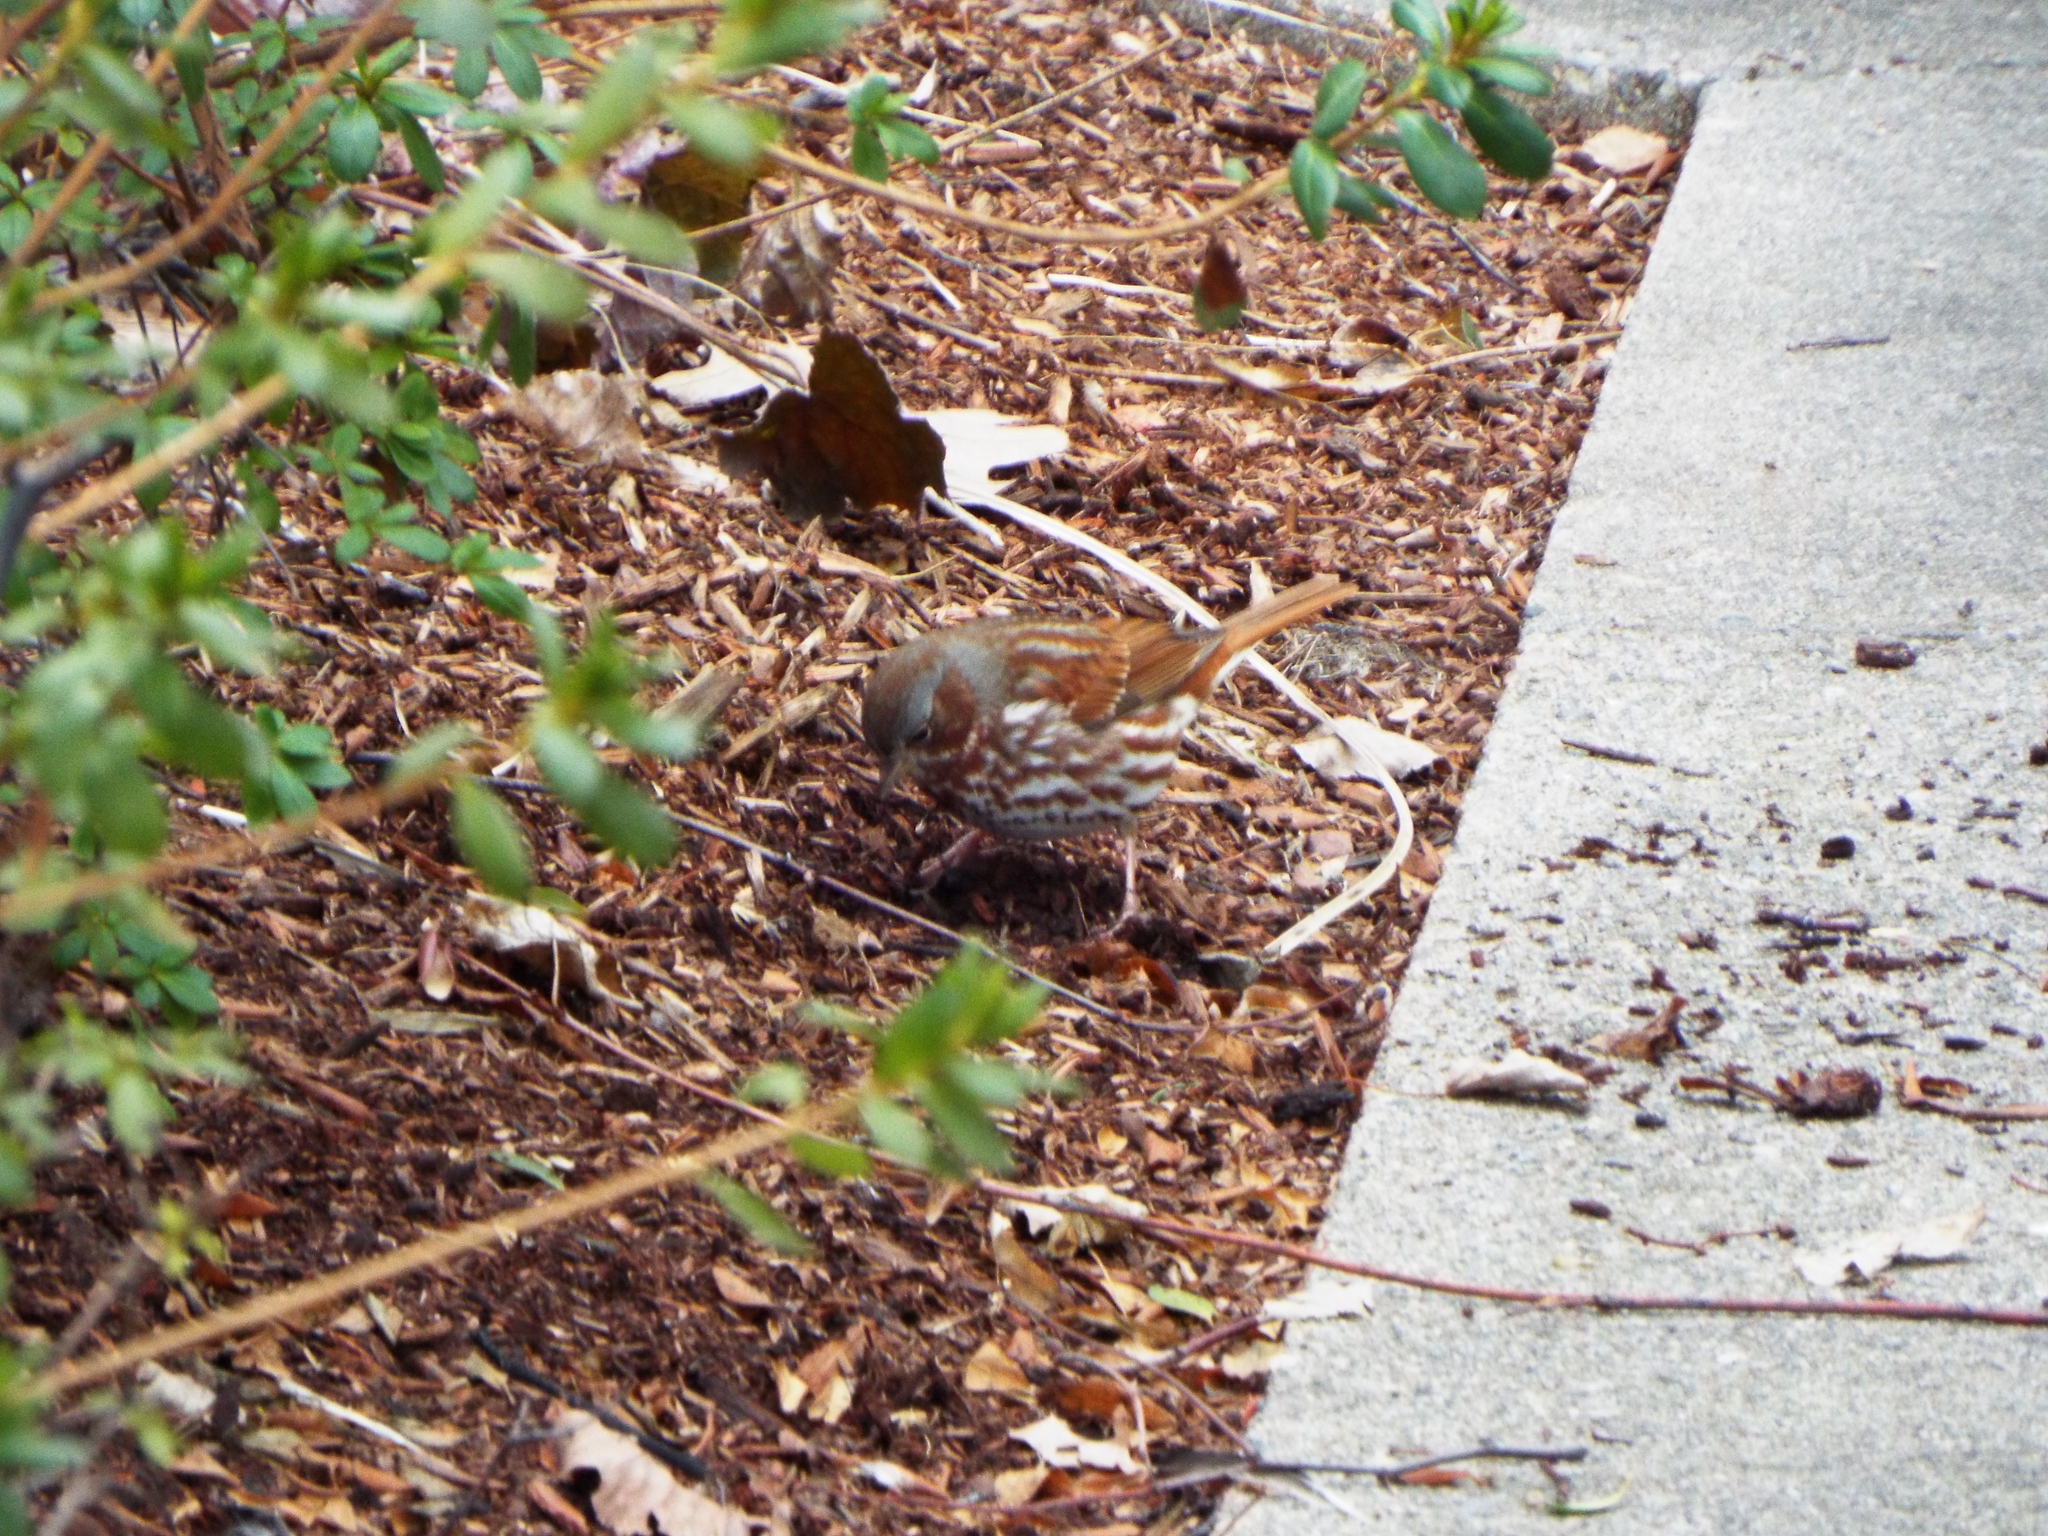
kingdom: Animalia
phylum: Chordata
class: Aves
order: Passeriformes
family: Passerellidae
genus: Passerella
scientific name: Passerella iliaca
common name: Fox sparrow
